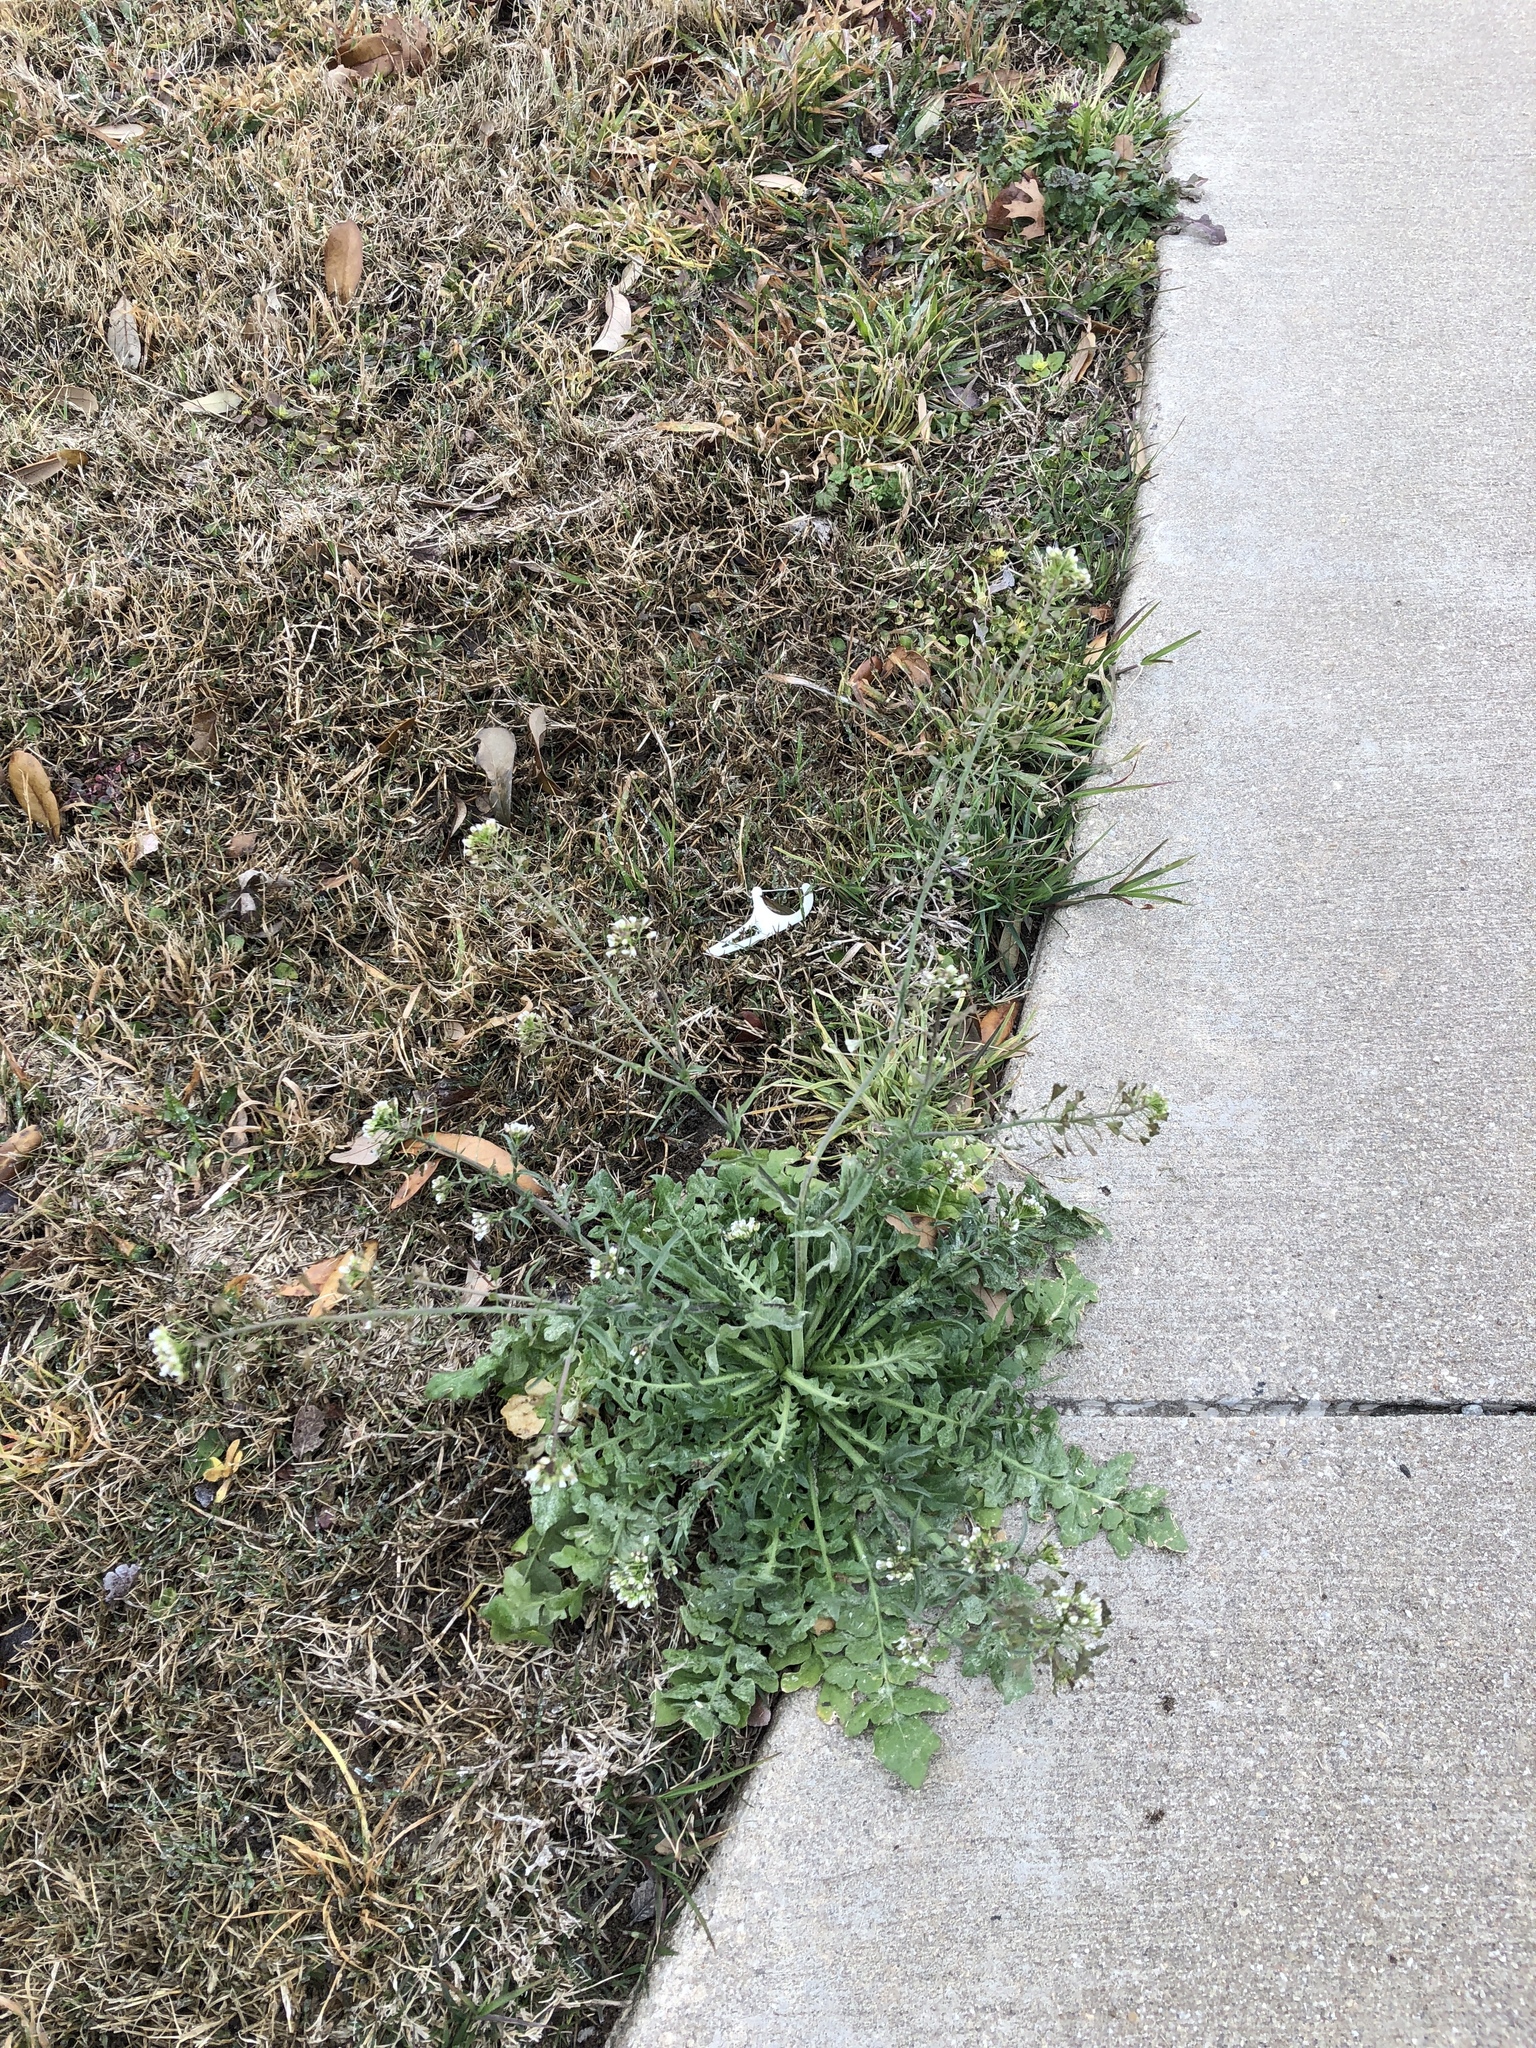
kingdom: Plantae
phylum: Tracheophyta
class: Magnoliopsida
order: Brassicales
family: Brassicaceae
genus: Capsella
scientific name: Capsella bursa-pastoris
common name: Shepherd's purse
